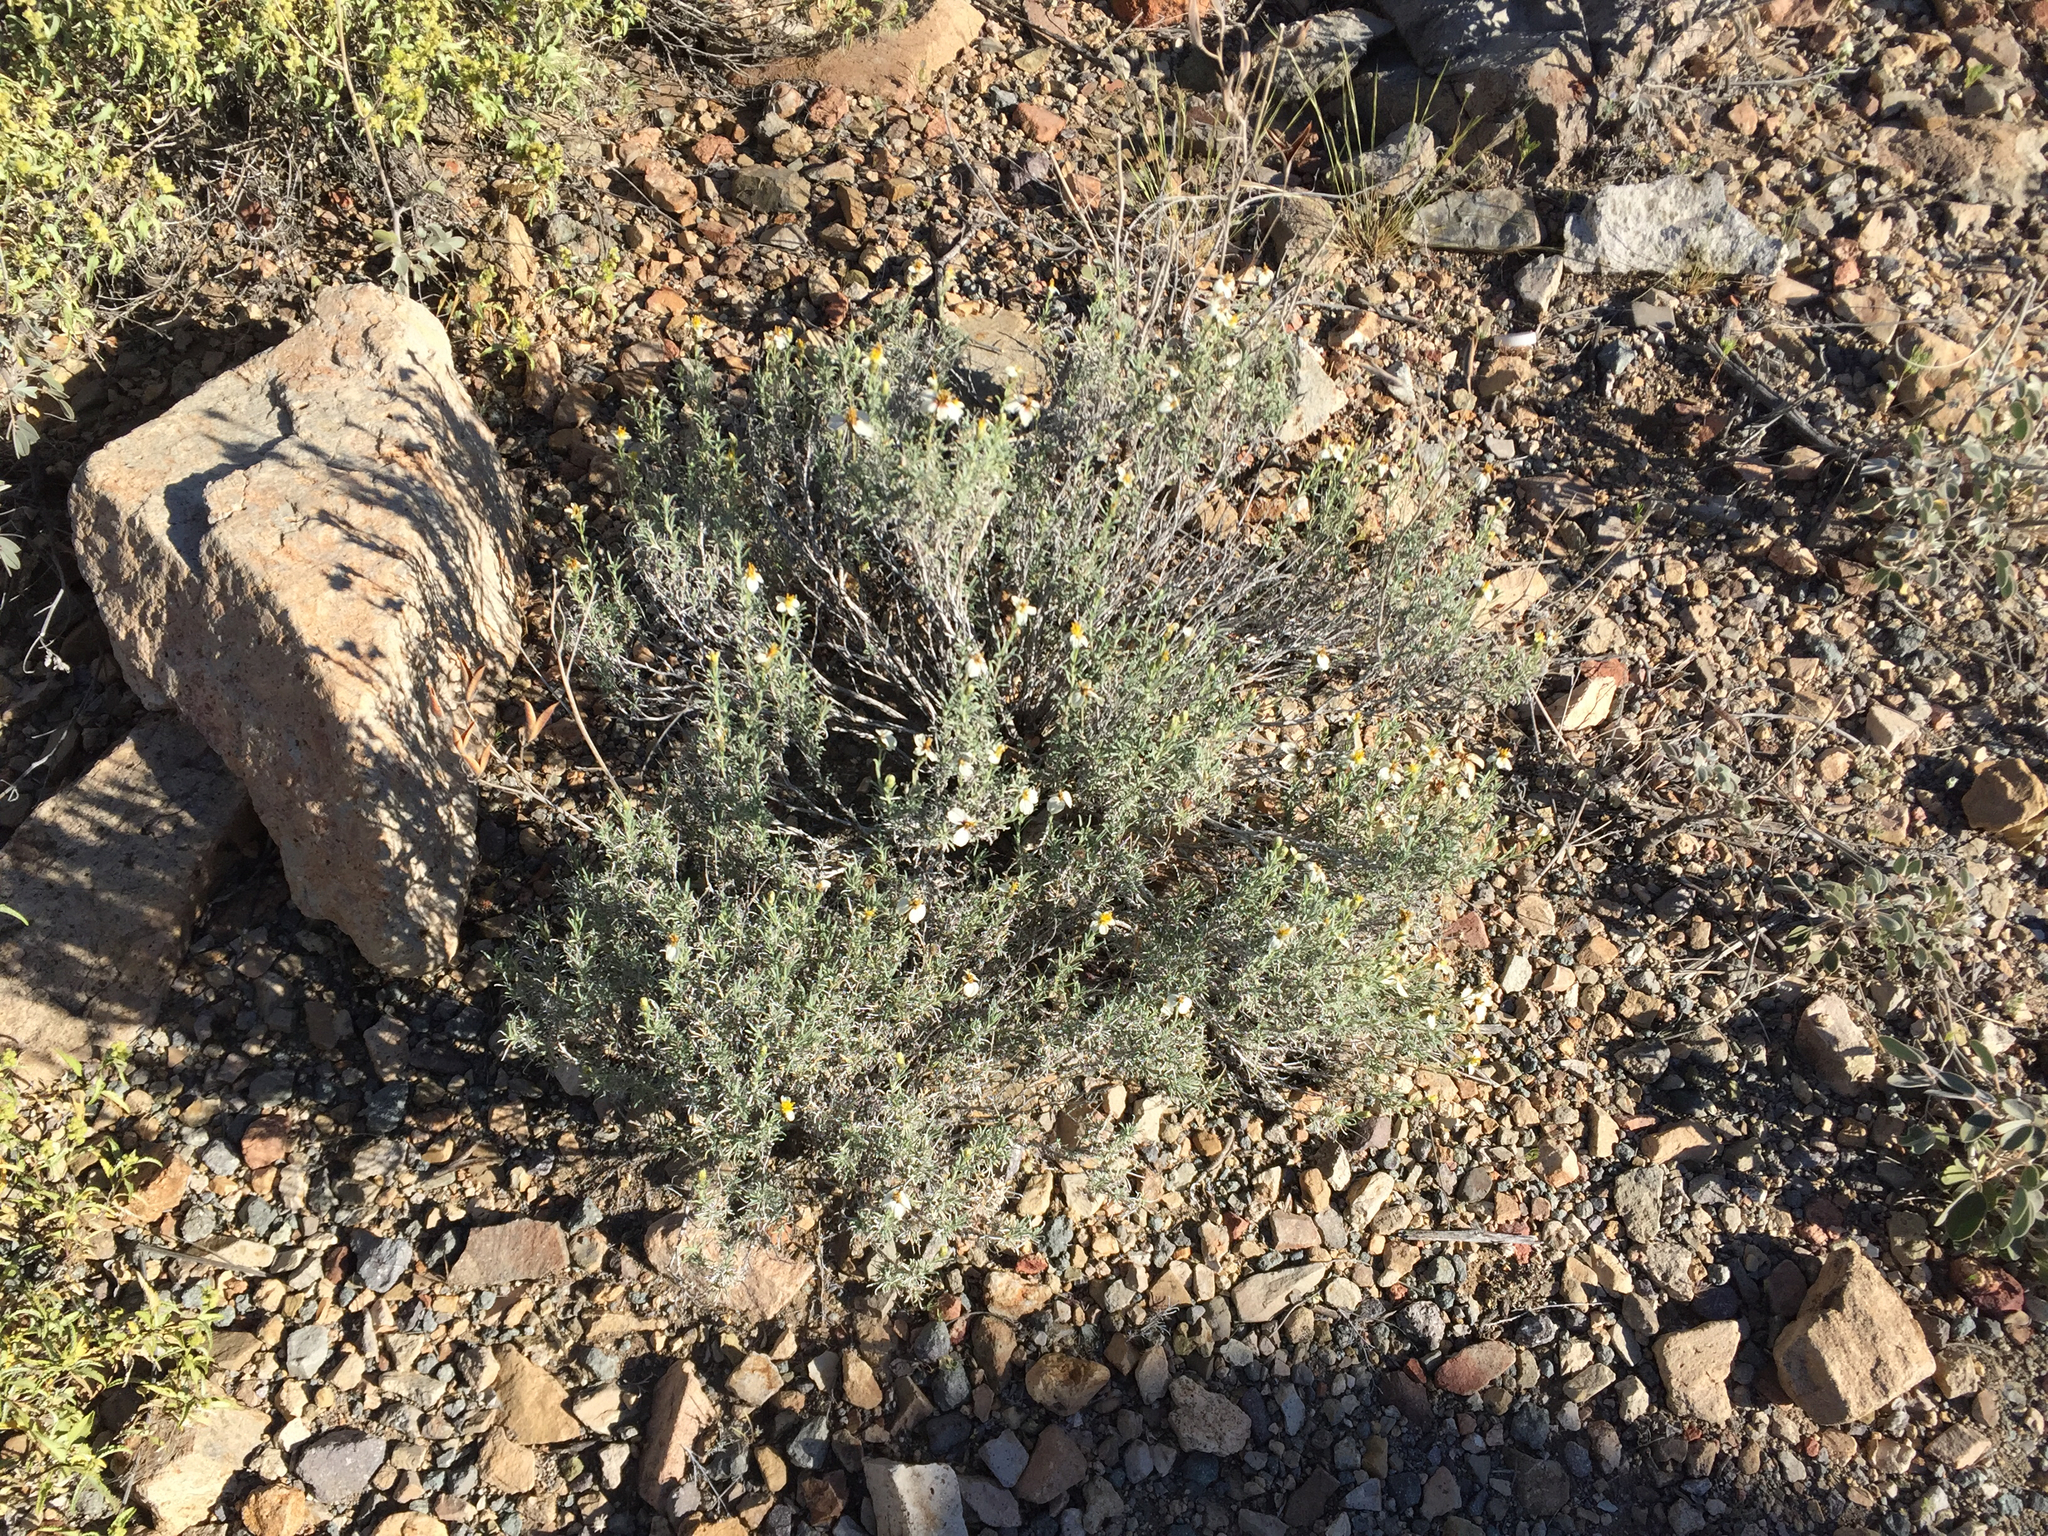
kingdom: Plantae
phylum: Tracheophyta
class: Magnoliopsida
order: Asterales
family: Asteraceae
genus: Zinnia
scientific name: Zinnia acerosa
